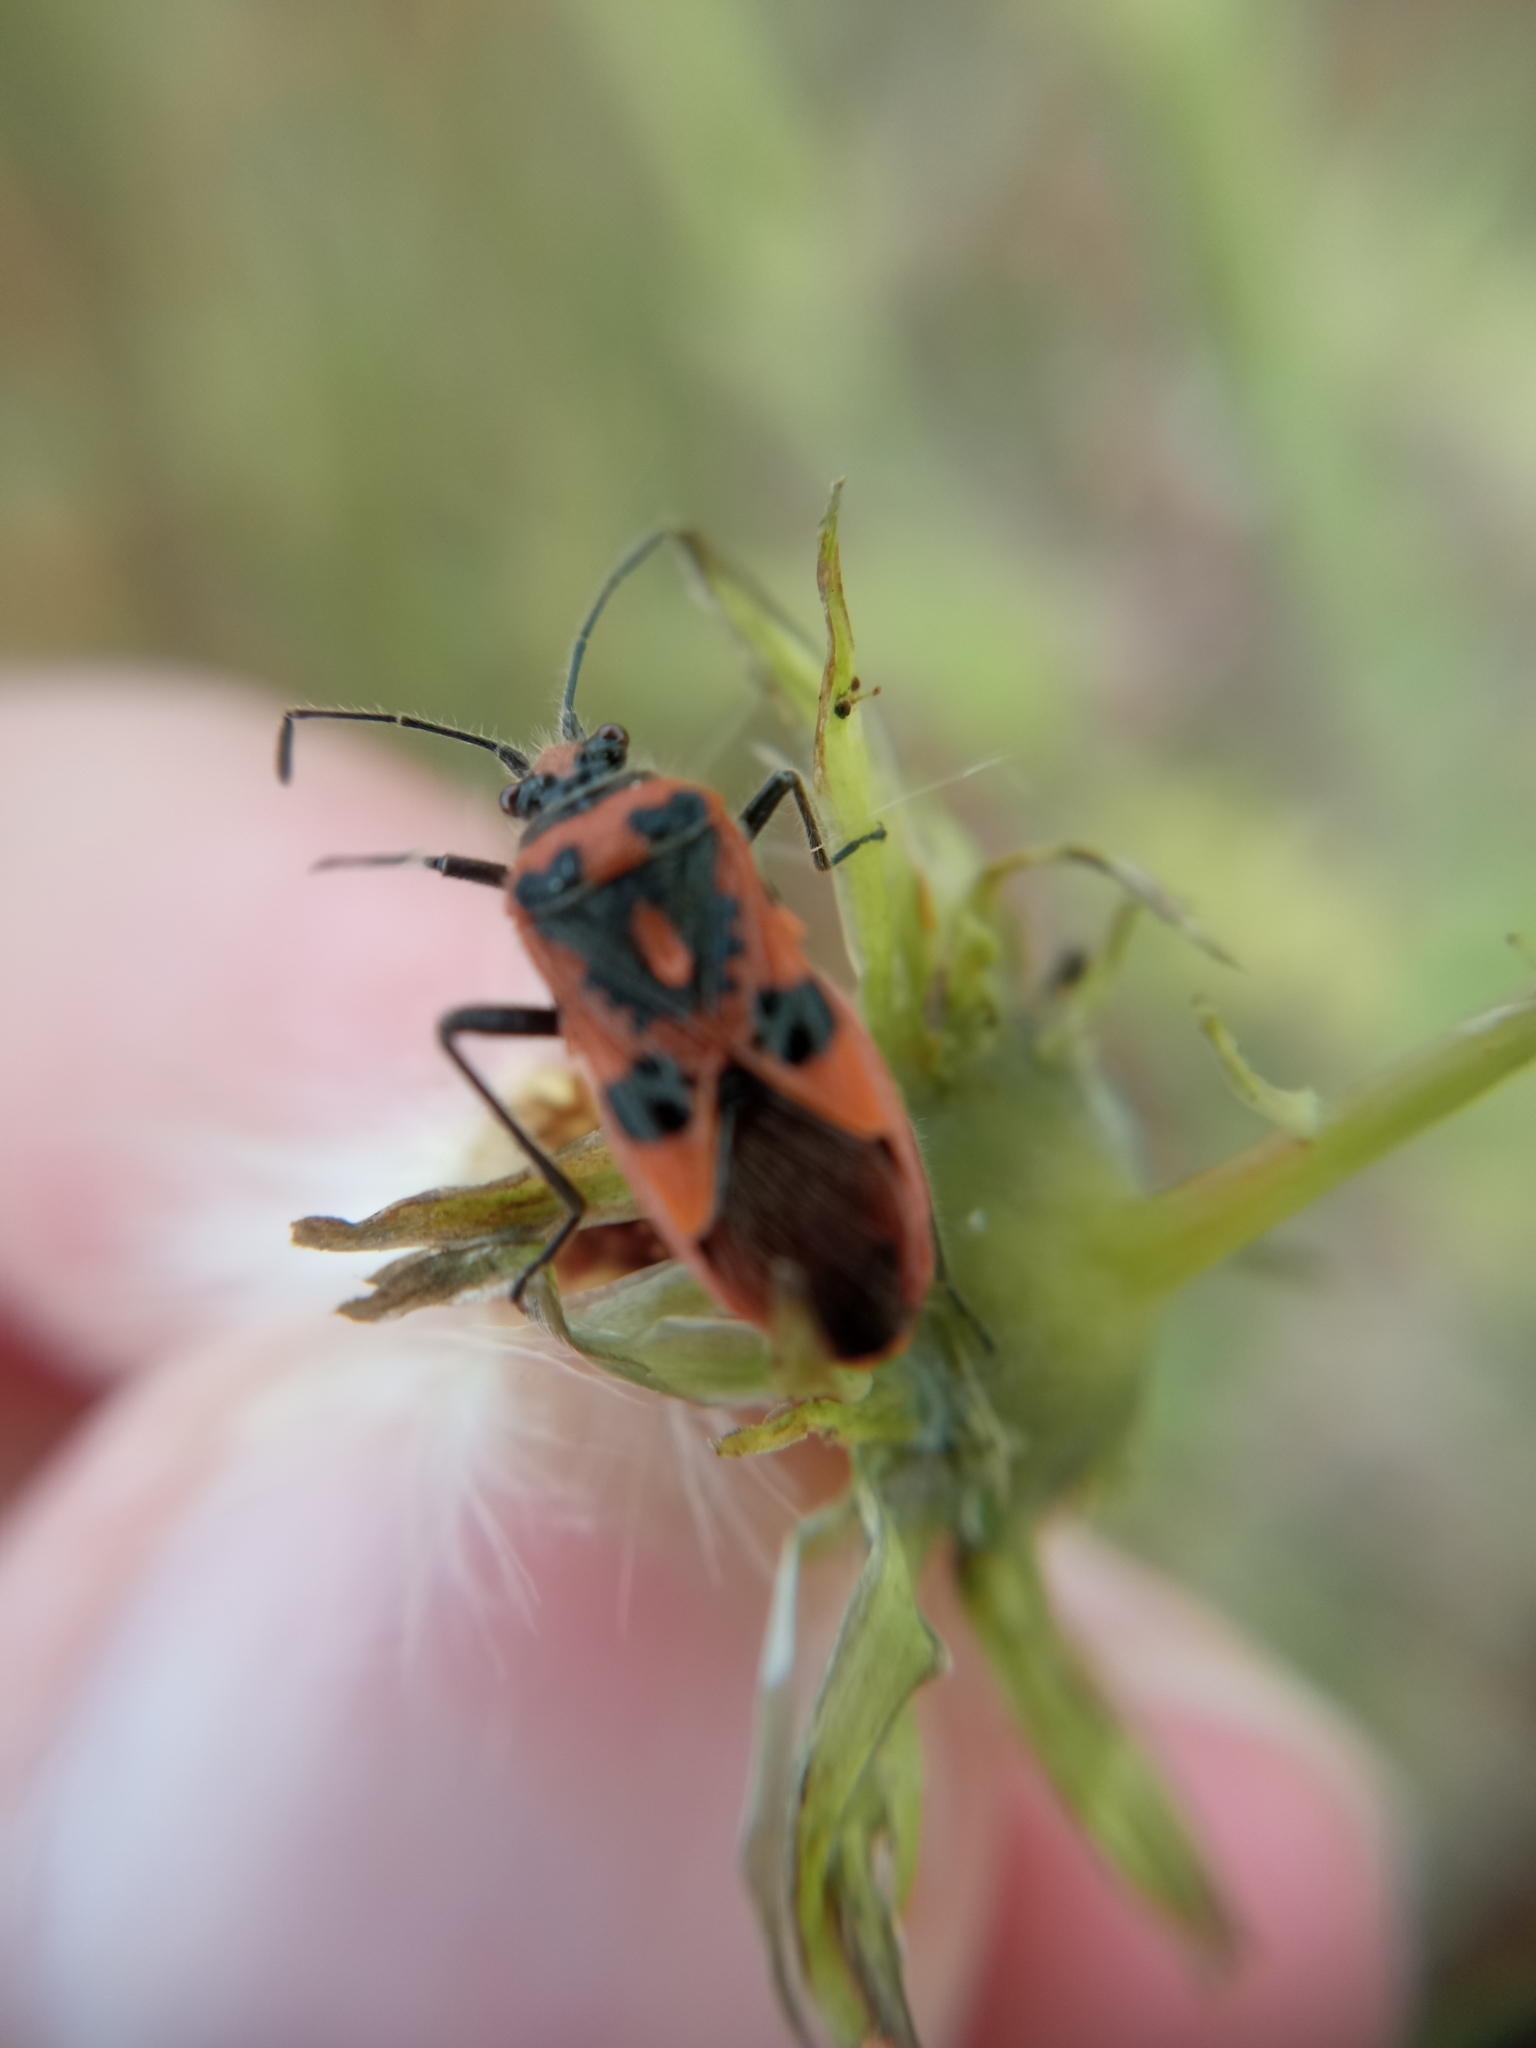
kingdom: Animalia
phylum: Arthropoda
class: Insecta
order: Hemiptera
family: Rhopalidae
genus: Corizus
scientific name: Corizus hyoscyami
